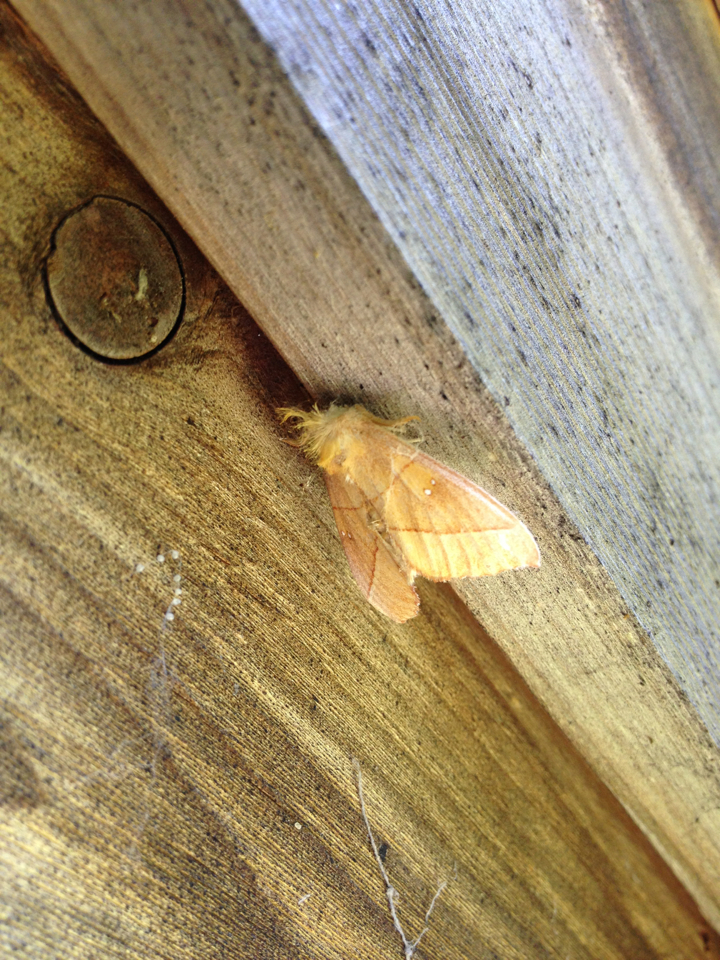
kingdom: Animalia
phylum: Arthropoda
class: Insecta
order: Lepidoptera
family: Notodontidae
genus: Nadata
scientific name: Nadata gibbosa
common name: White-dotted prominent
